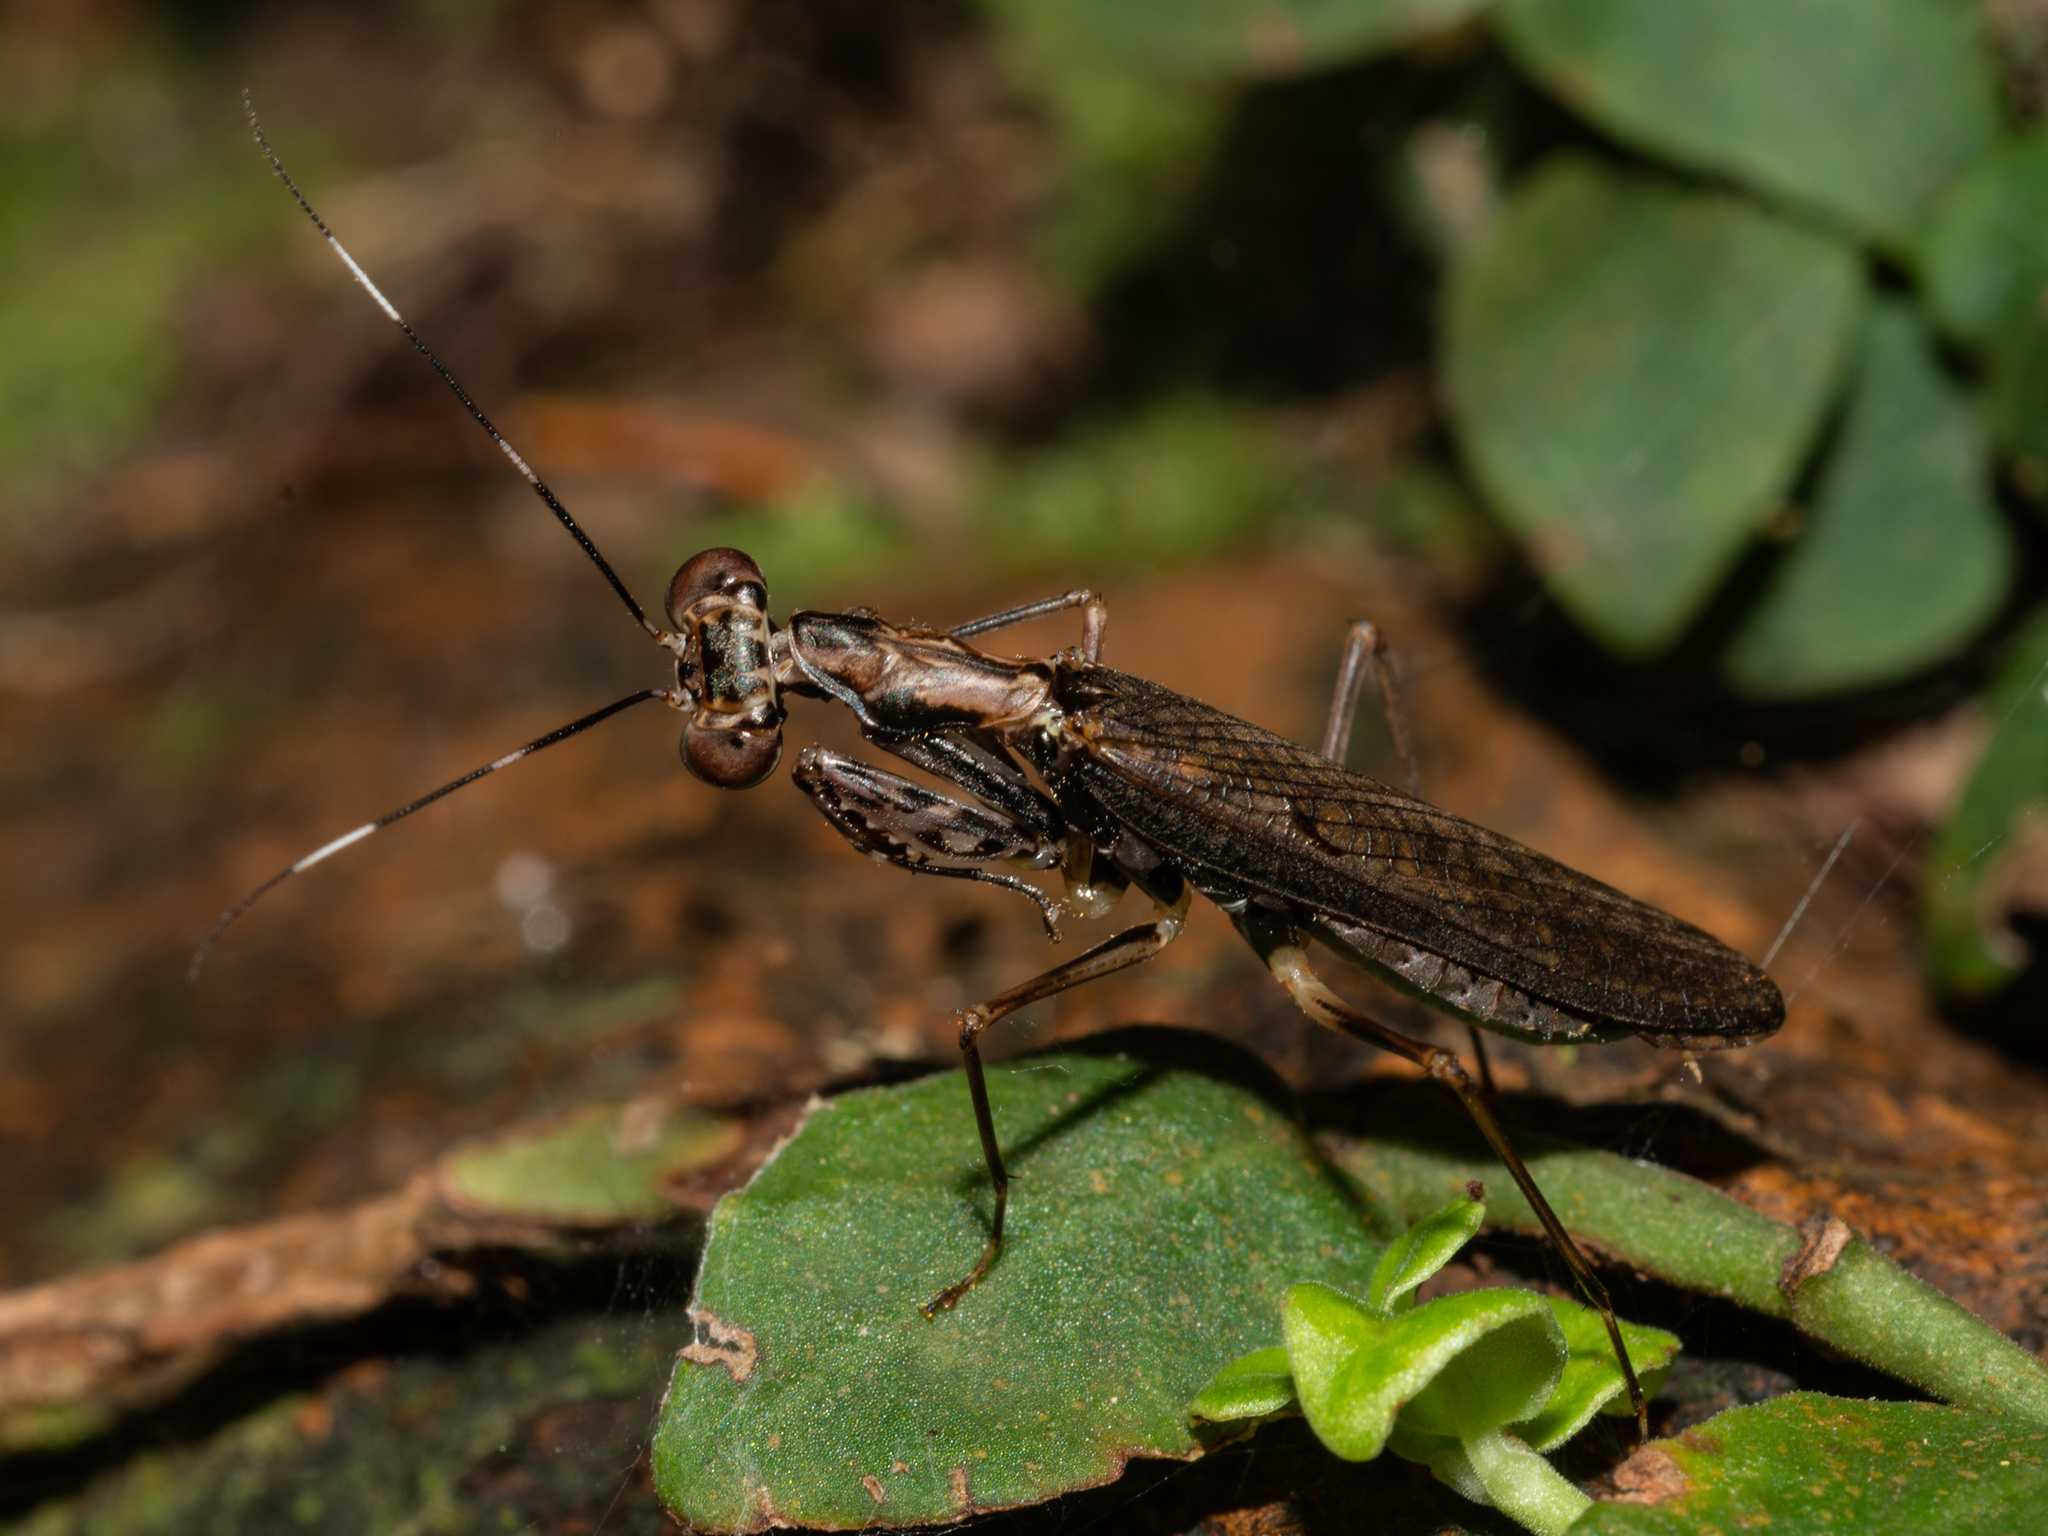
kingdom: Animalia
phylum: Arthropoda
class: Insecta
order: Mantodea
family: Gonypetidae
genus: Spilomantis
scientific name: Spilomantis occipitalis
